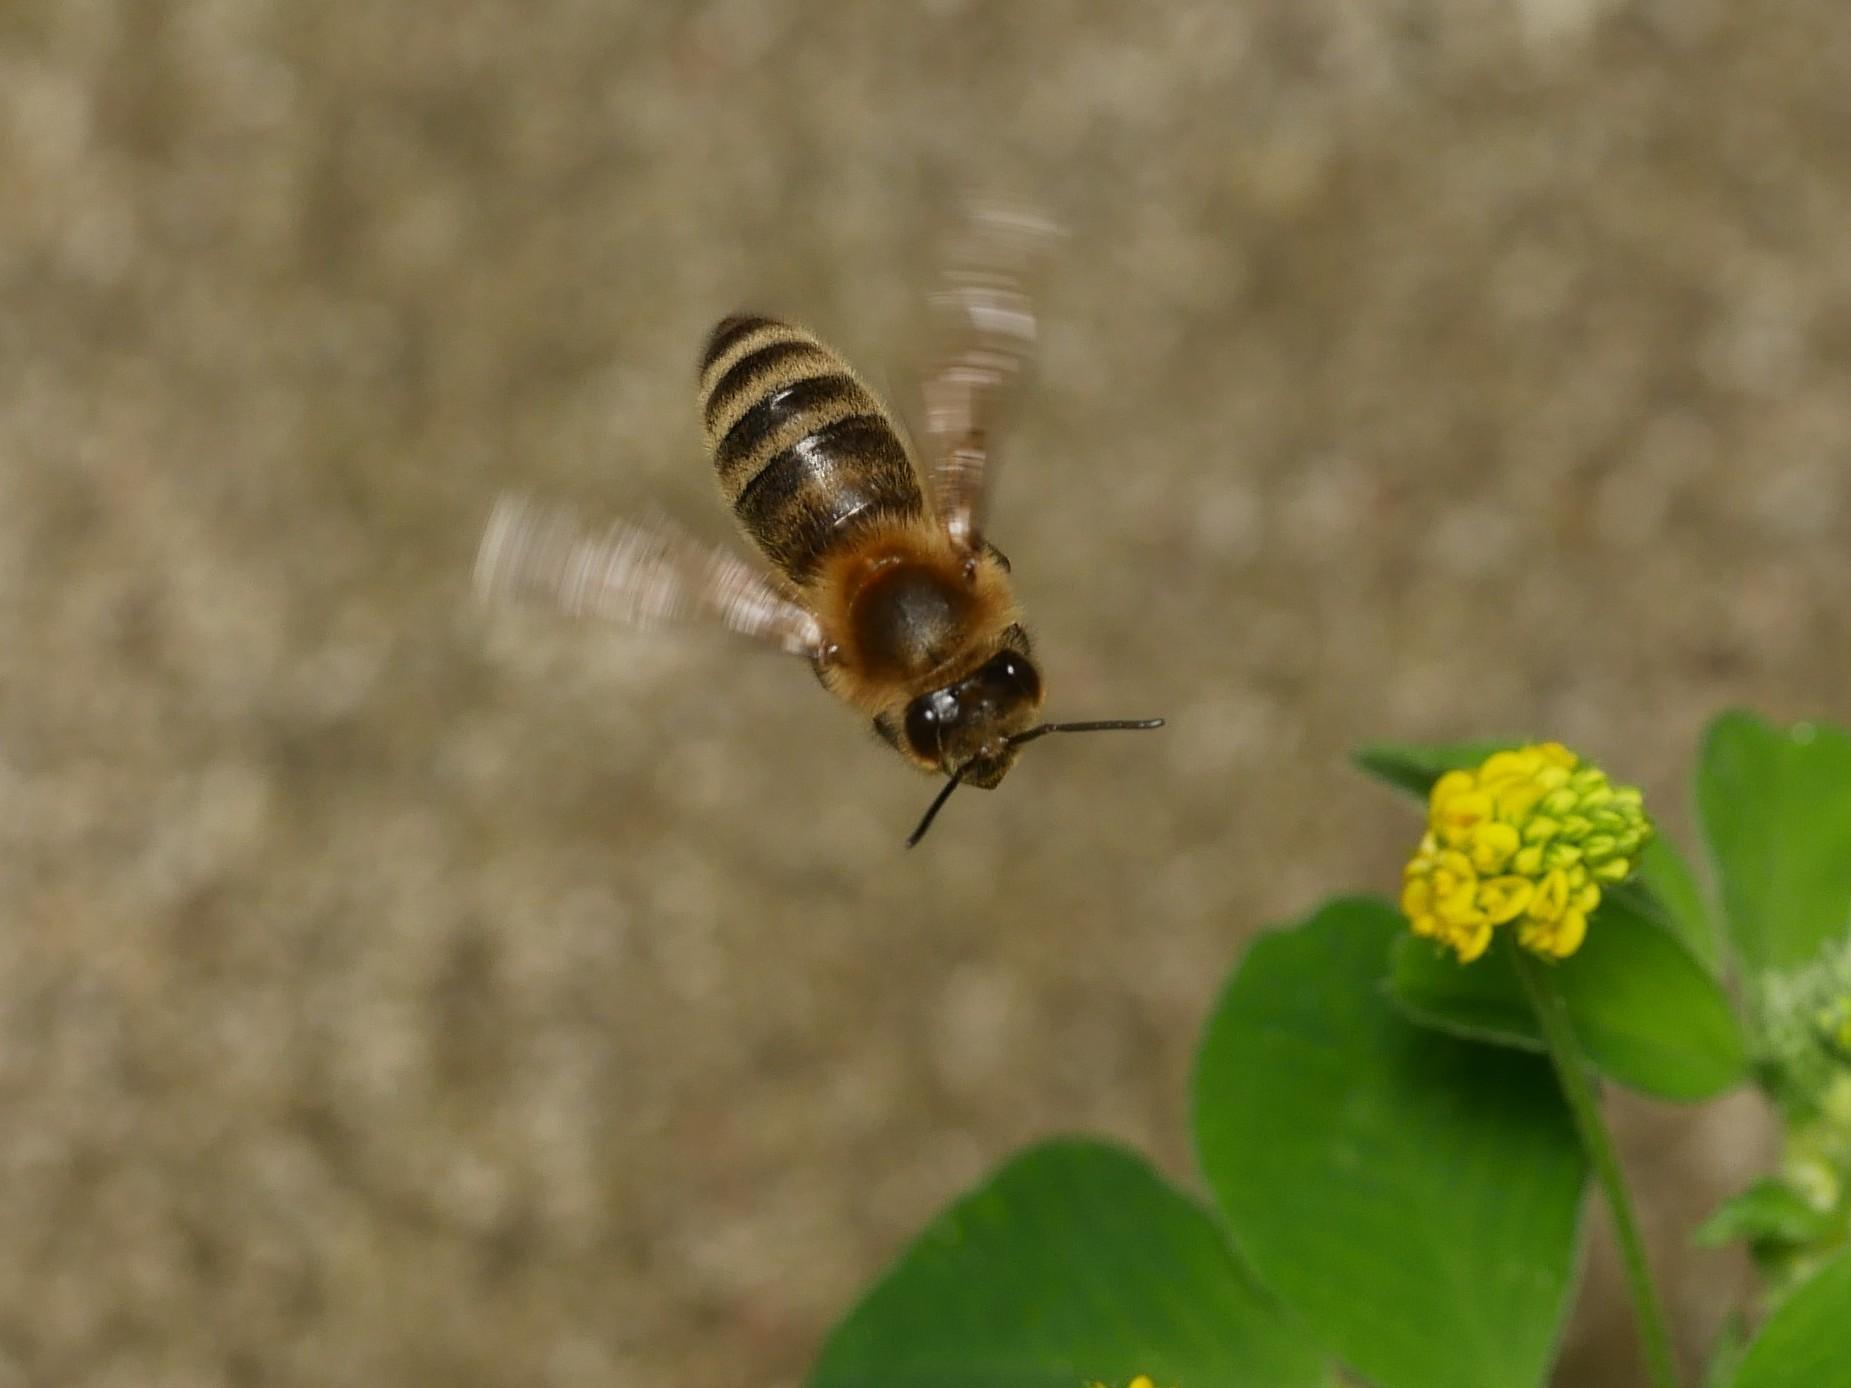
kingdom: Animalia
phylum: Arthropoda
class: Insecta
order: Hymenoptera
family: Apidae
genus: Apis
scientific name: Apis mellifera
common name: Honey bee
